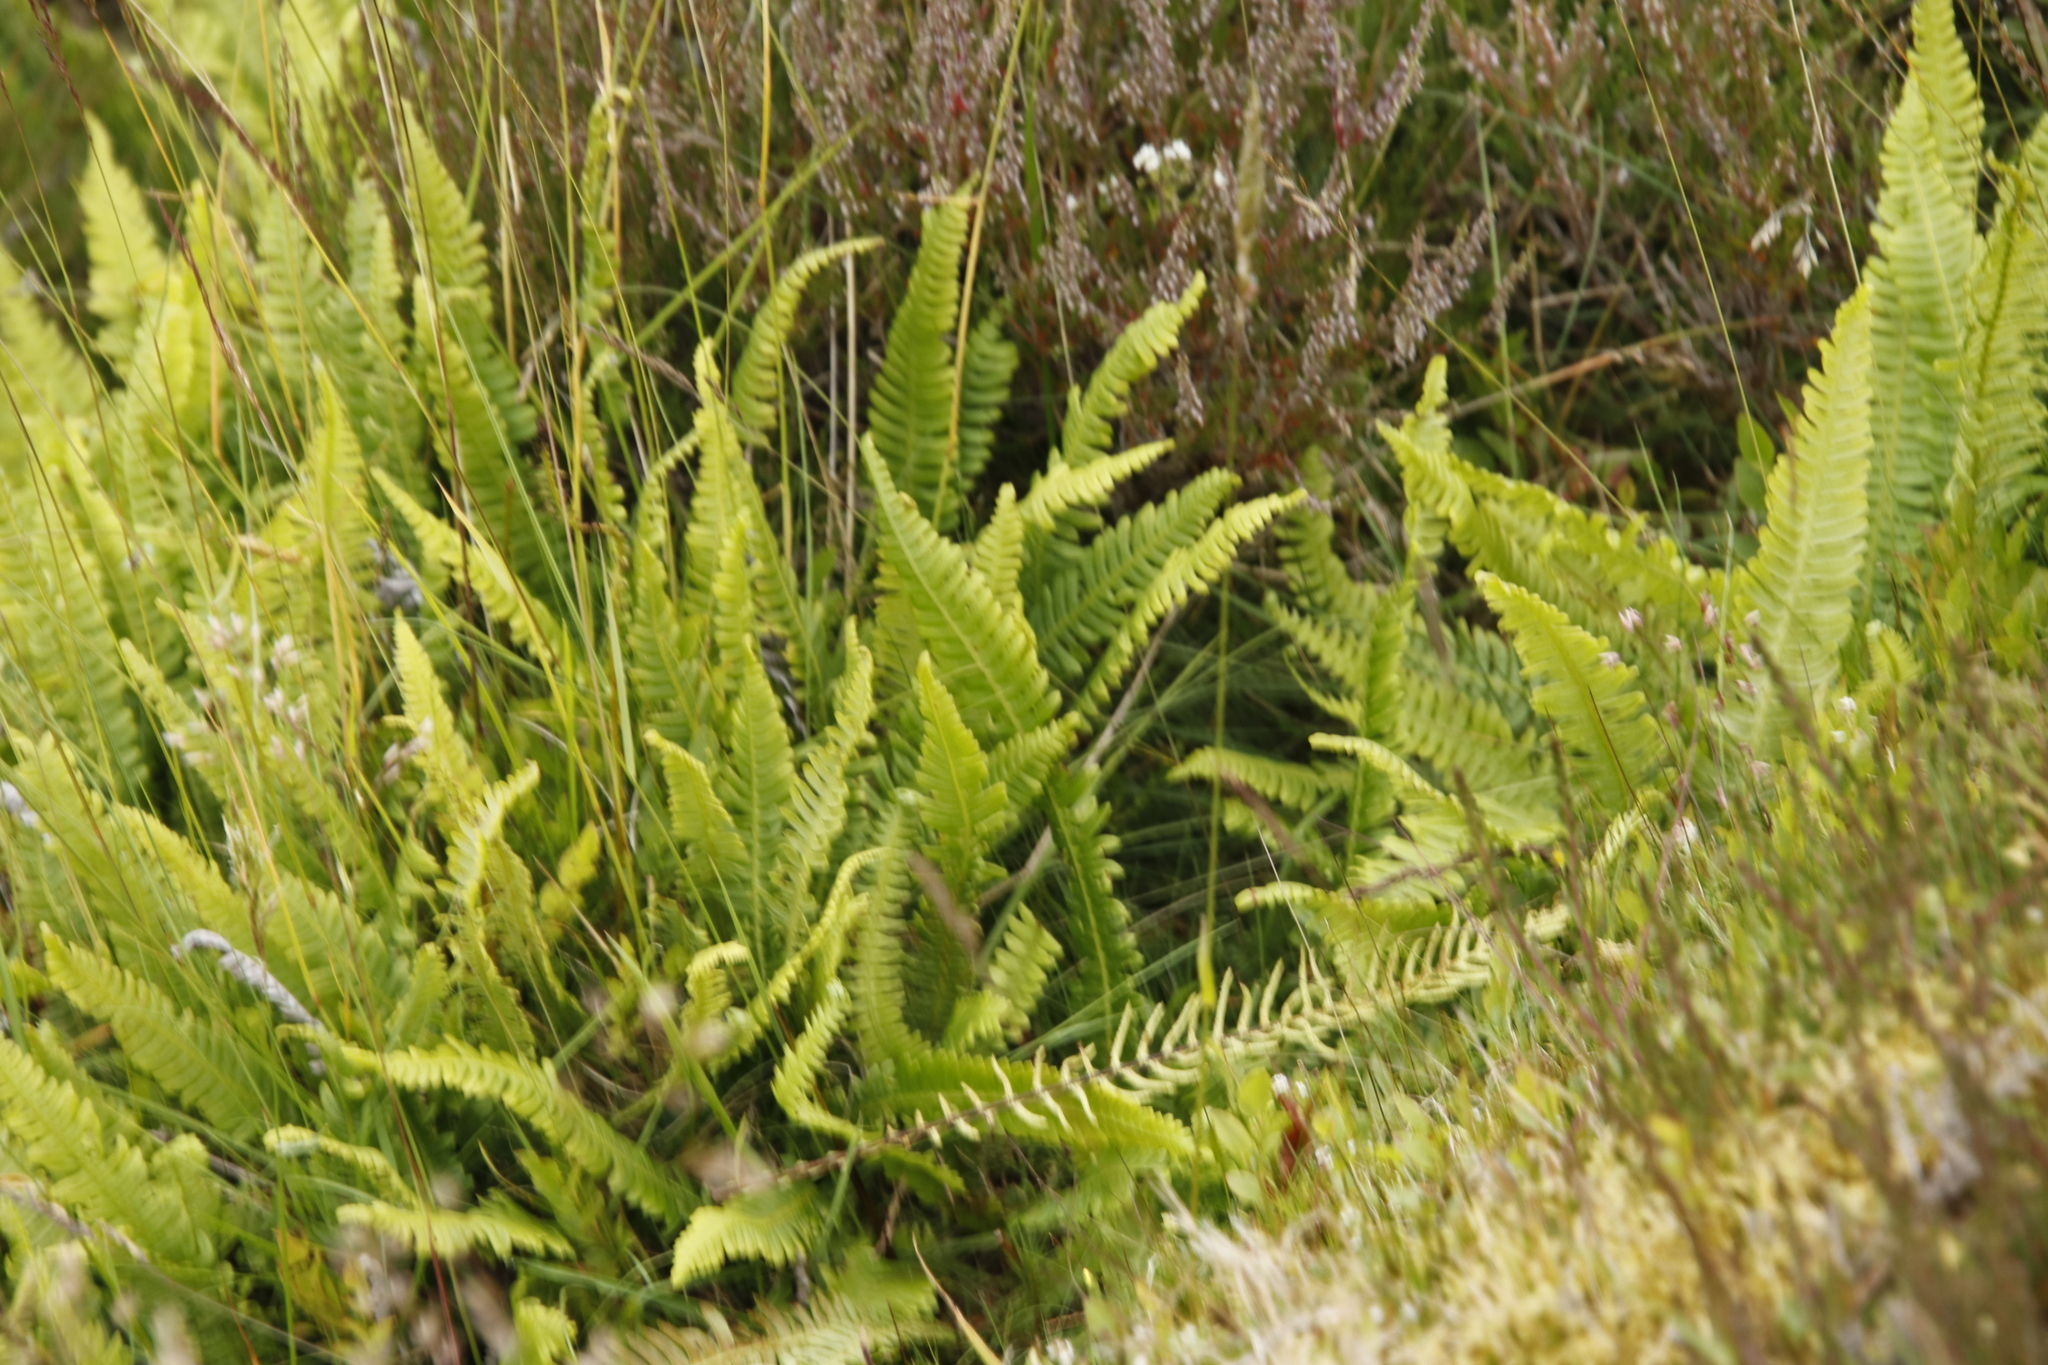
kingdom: Plantae
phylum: Tracheophyta
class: Polypodiopsida
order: Polypodiales
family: Blechnaceae
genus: Struthiopteris
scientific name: Struthiopteris spicant
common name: Deer fern
